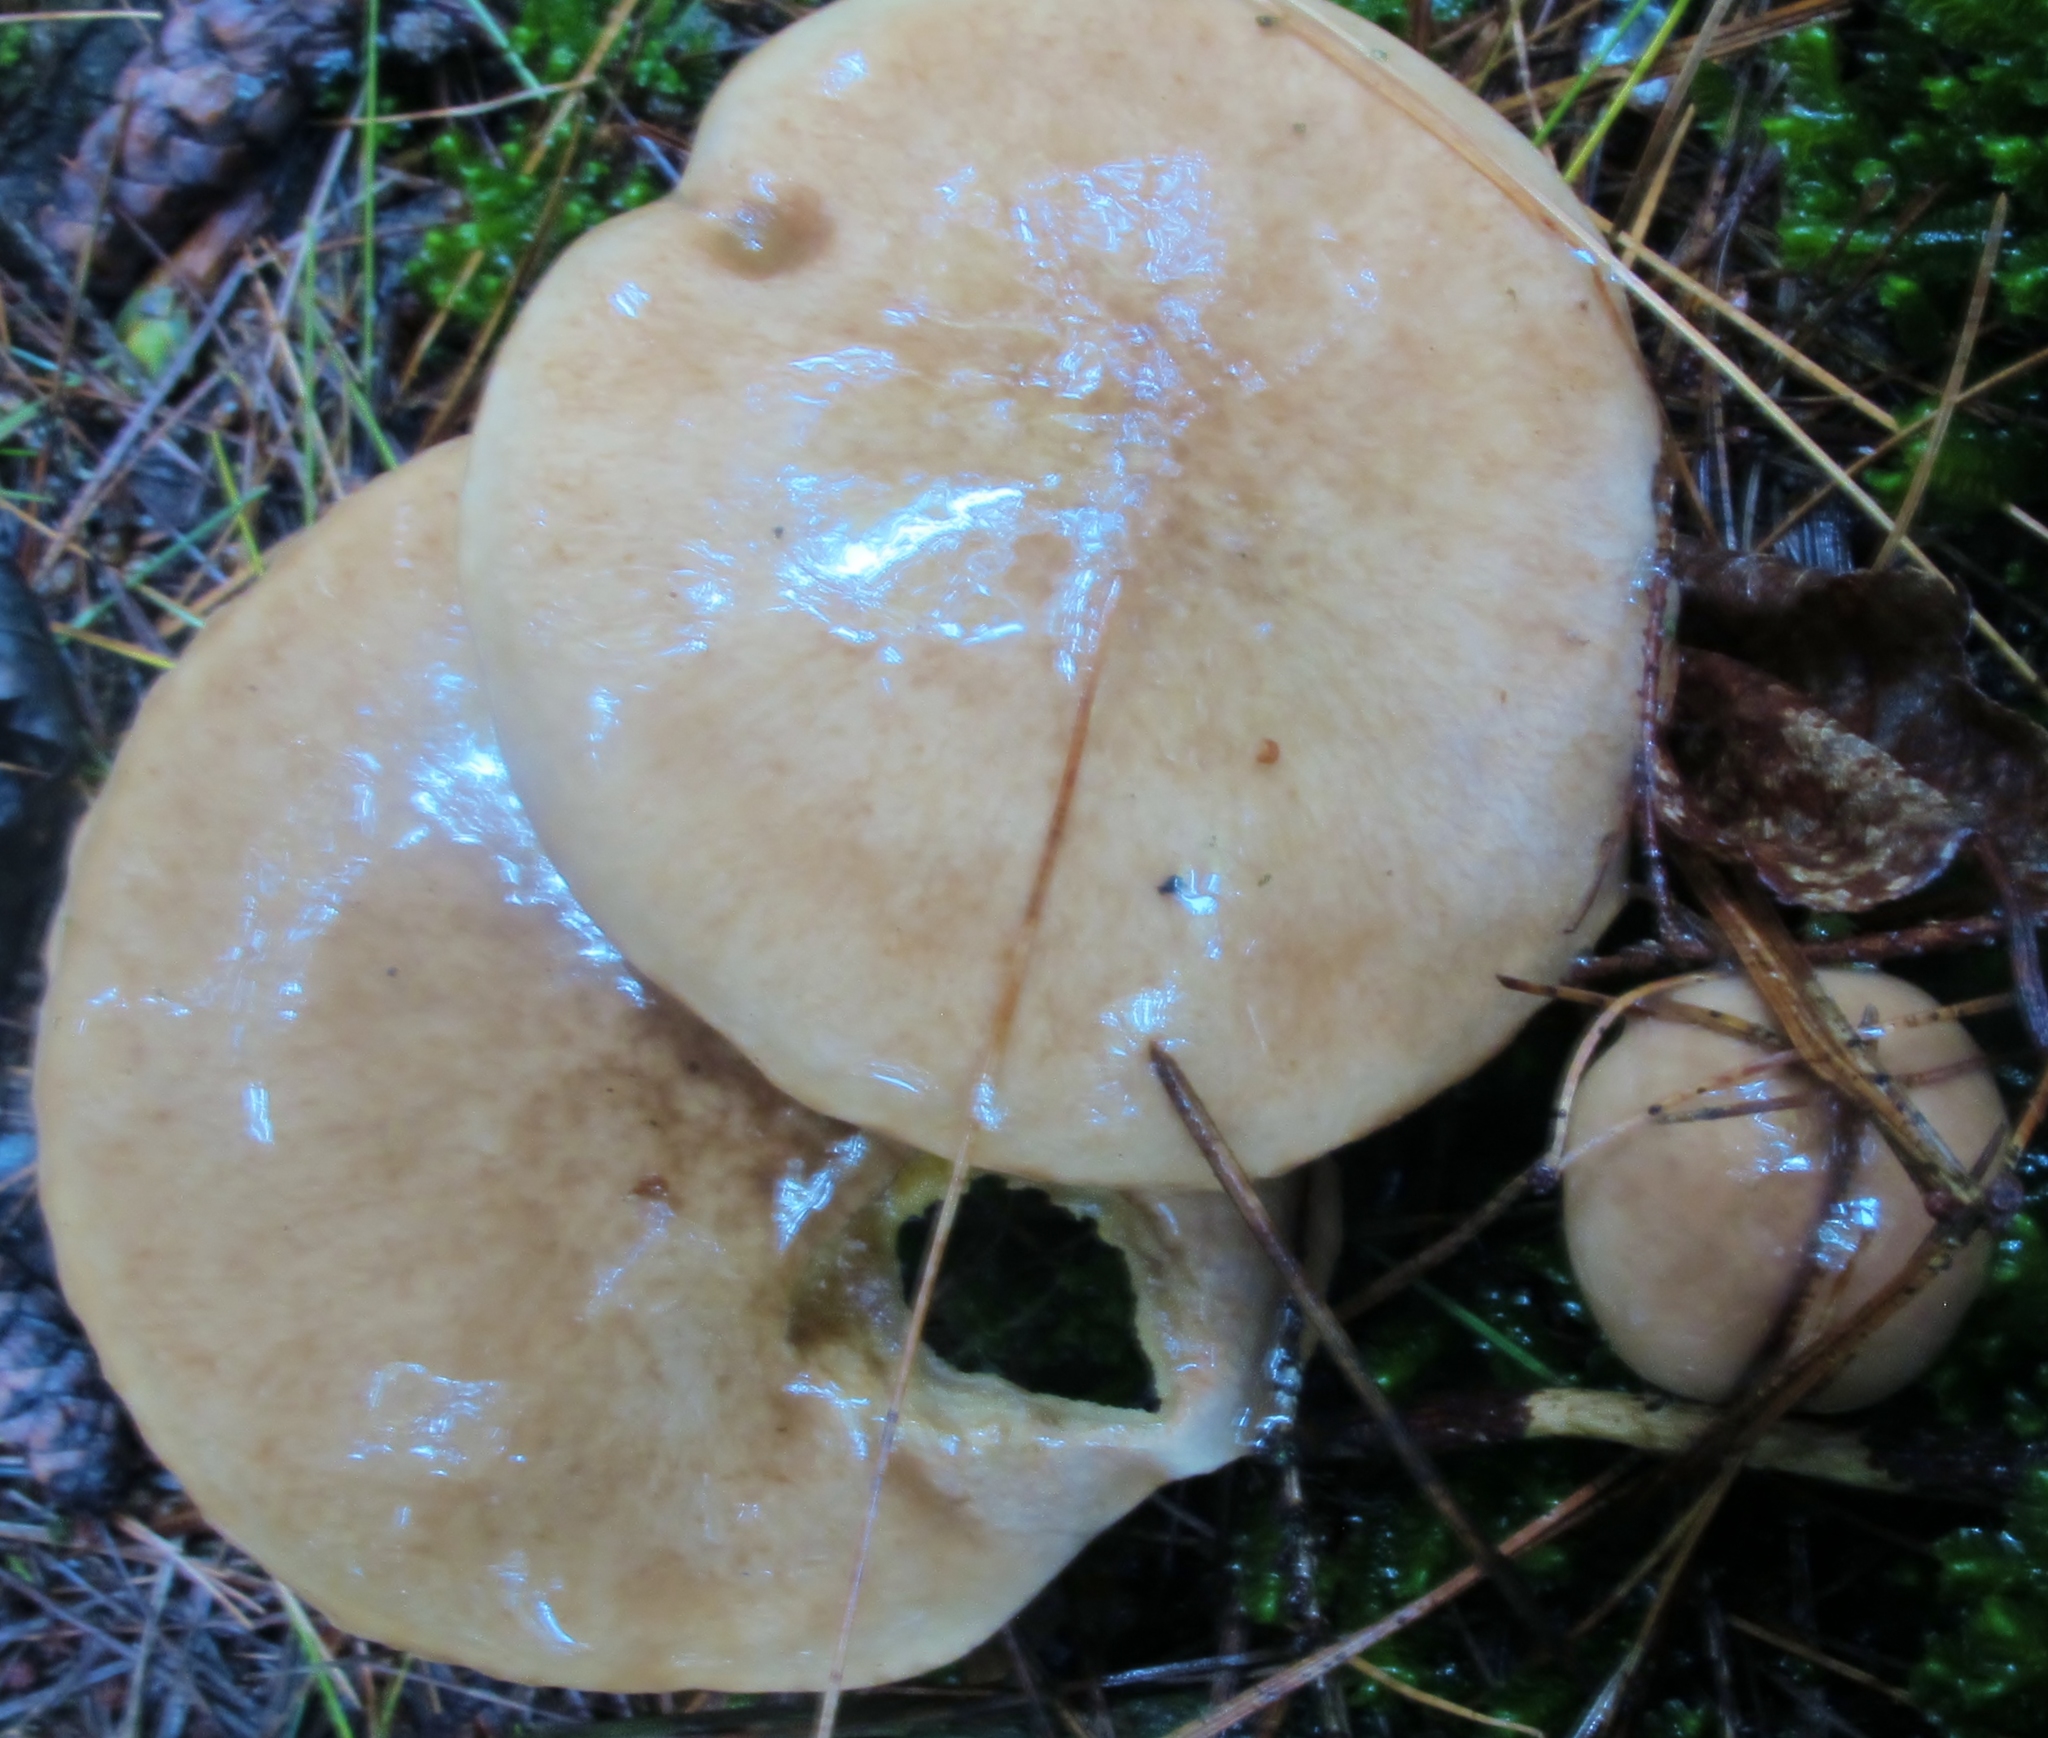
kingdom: Fungi
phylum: Basidiomycota
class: Agaricomycetes
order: Boletales
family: Suillaceae
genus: Suillus
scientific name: Suillus acidus
